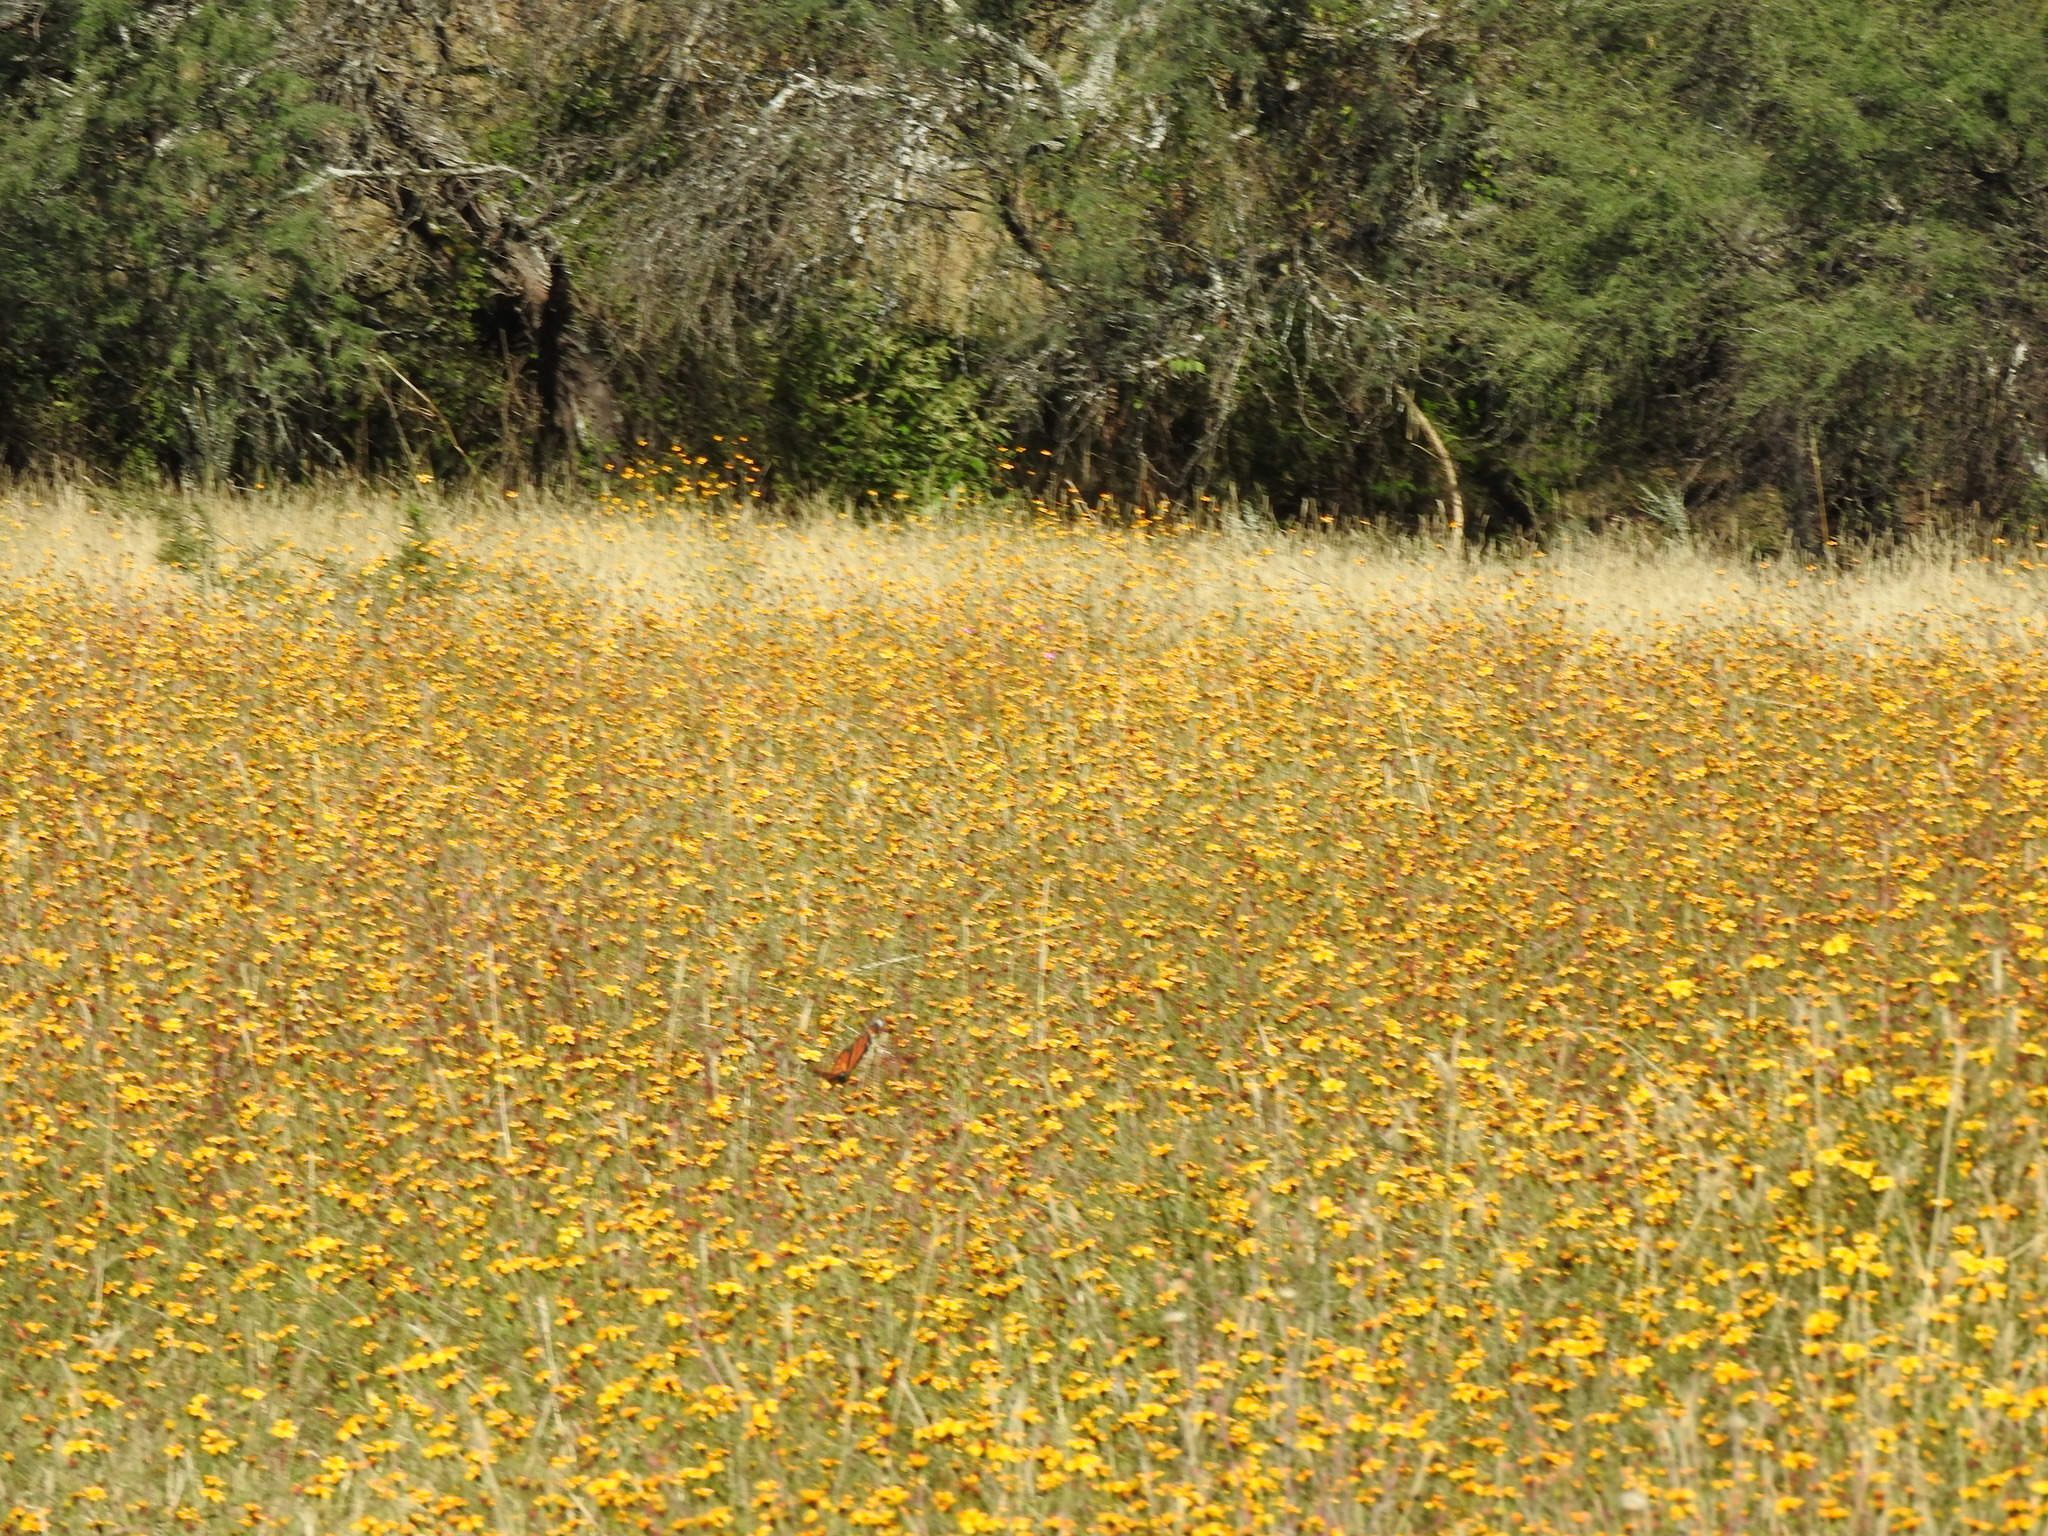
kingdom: Animalia
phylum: Arthropoda
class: Insecta
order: Lepidoptera
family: Nymphalidae
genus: Danaus
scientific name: Danaus plexippus
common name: Monarch
